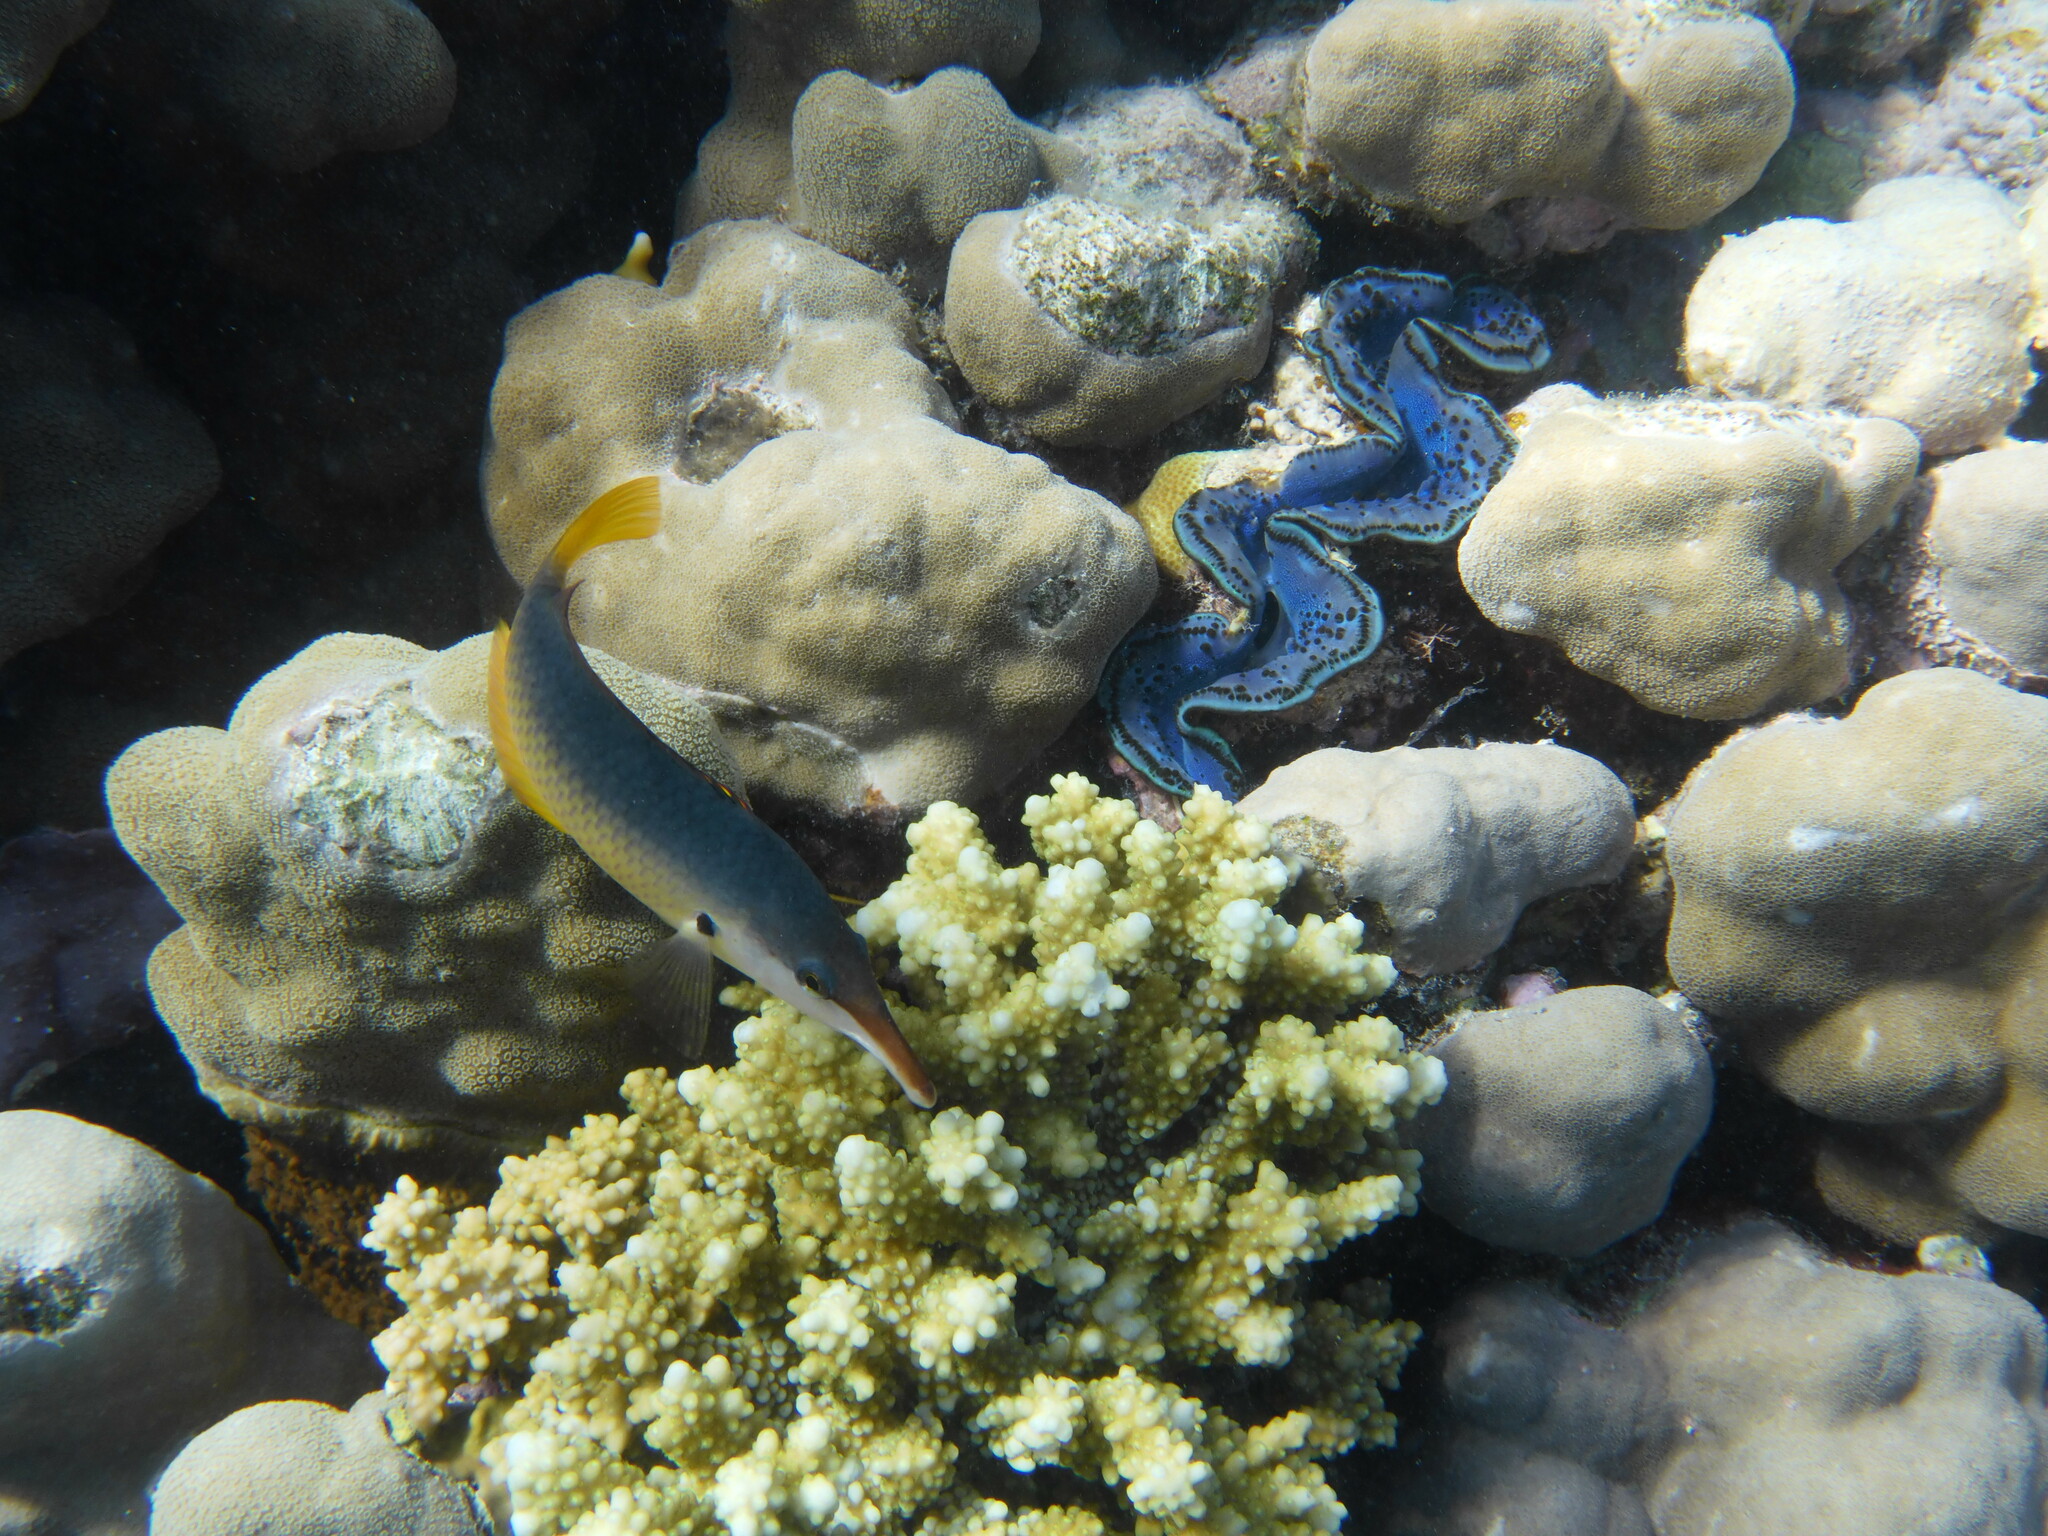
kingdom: Animalia
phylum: Chordata
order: Perciformes
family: Labridae
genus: Gomphosus
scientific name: Gomphosus klunzingeri
